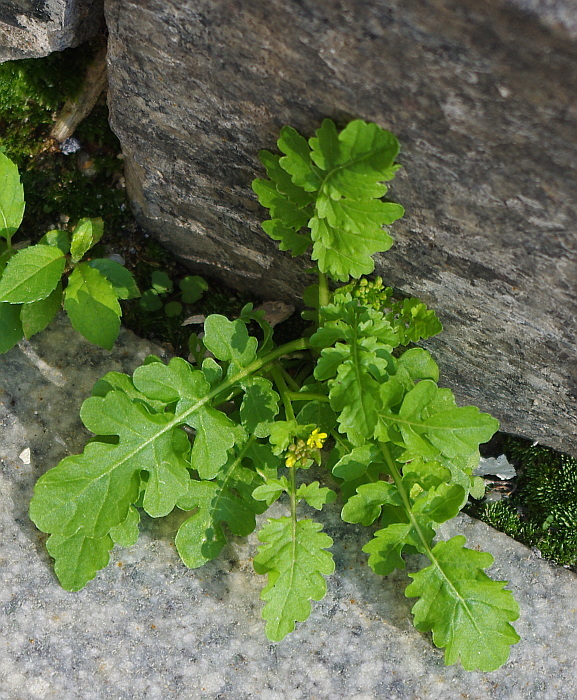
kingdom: Plantae
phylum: Tracheophyta
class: Magnoliopsida
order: Brassicales
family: Brassicaceae
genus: Rorippa
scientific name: Rorippa palustris
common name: Marsh yellow-cress
